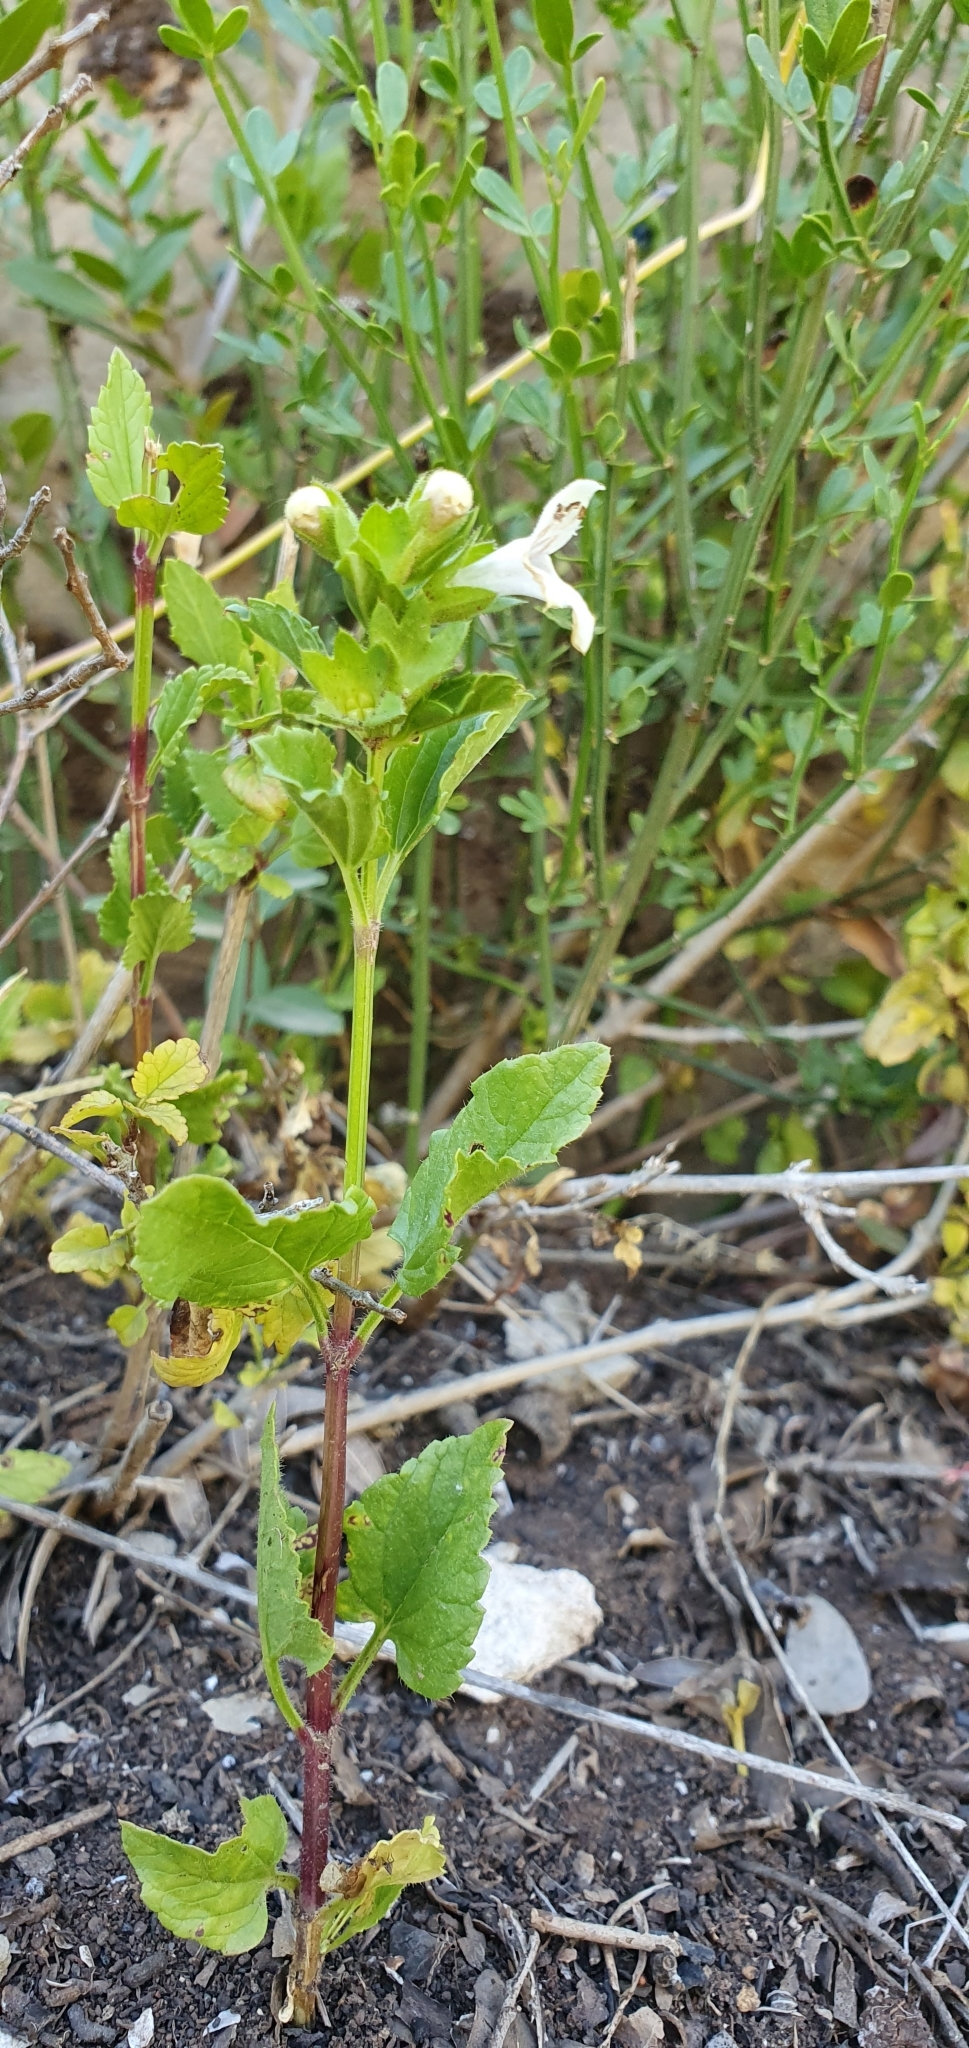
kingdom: Plantae
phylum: Tracheophyta
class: Magnoliopsida
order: Lamiales
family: Lamiaceae
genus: Prasium
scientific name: Prasium majus
